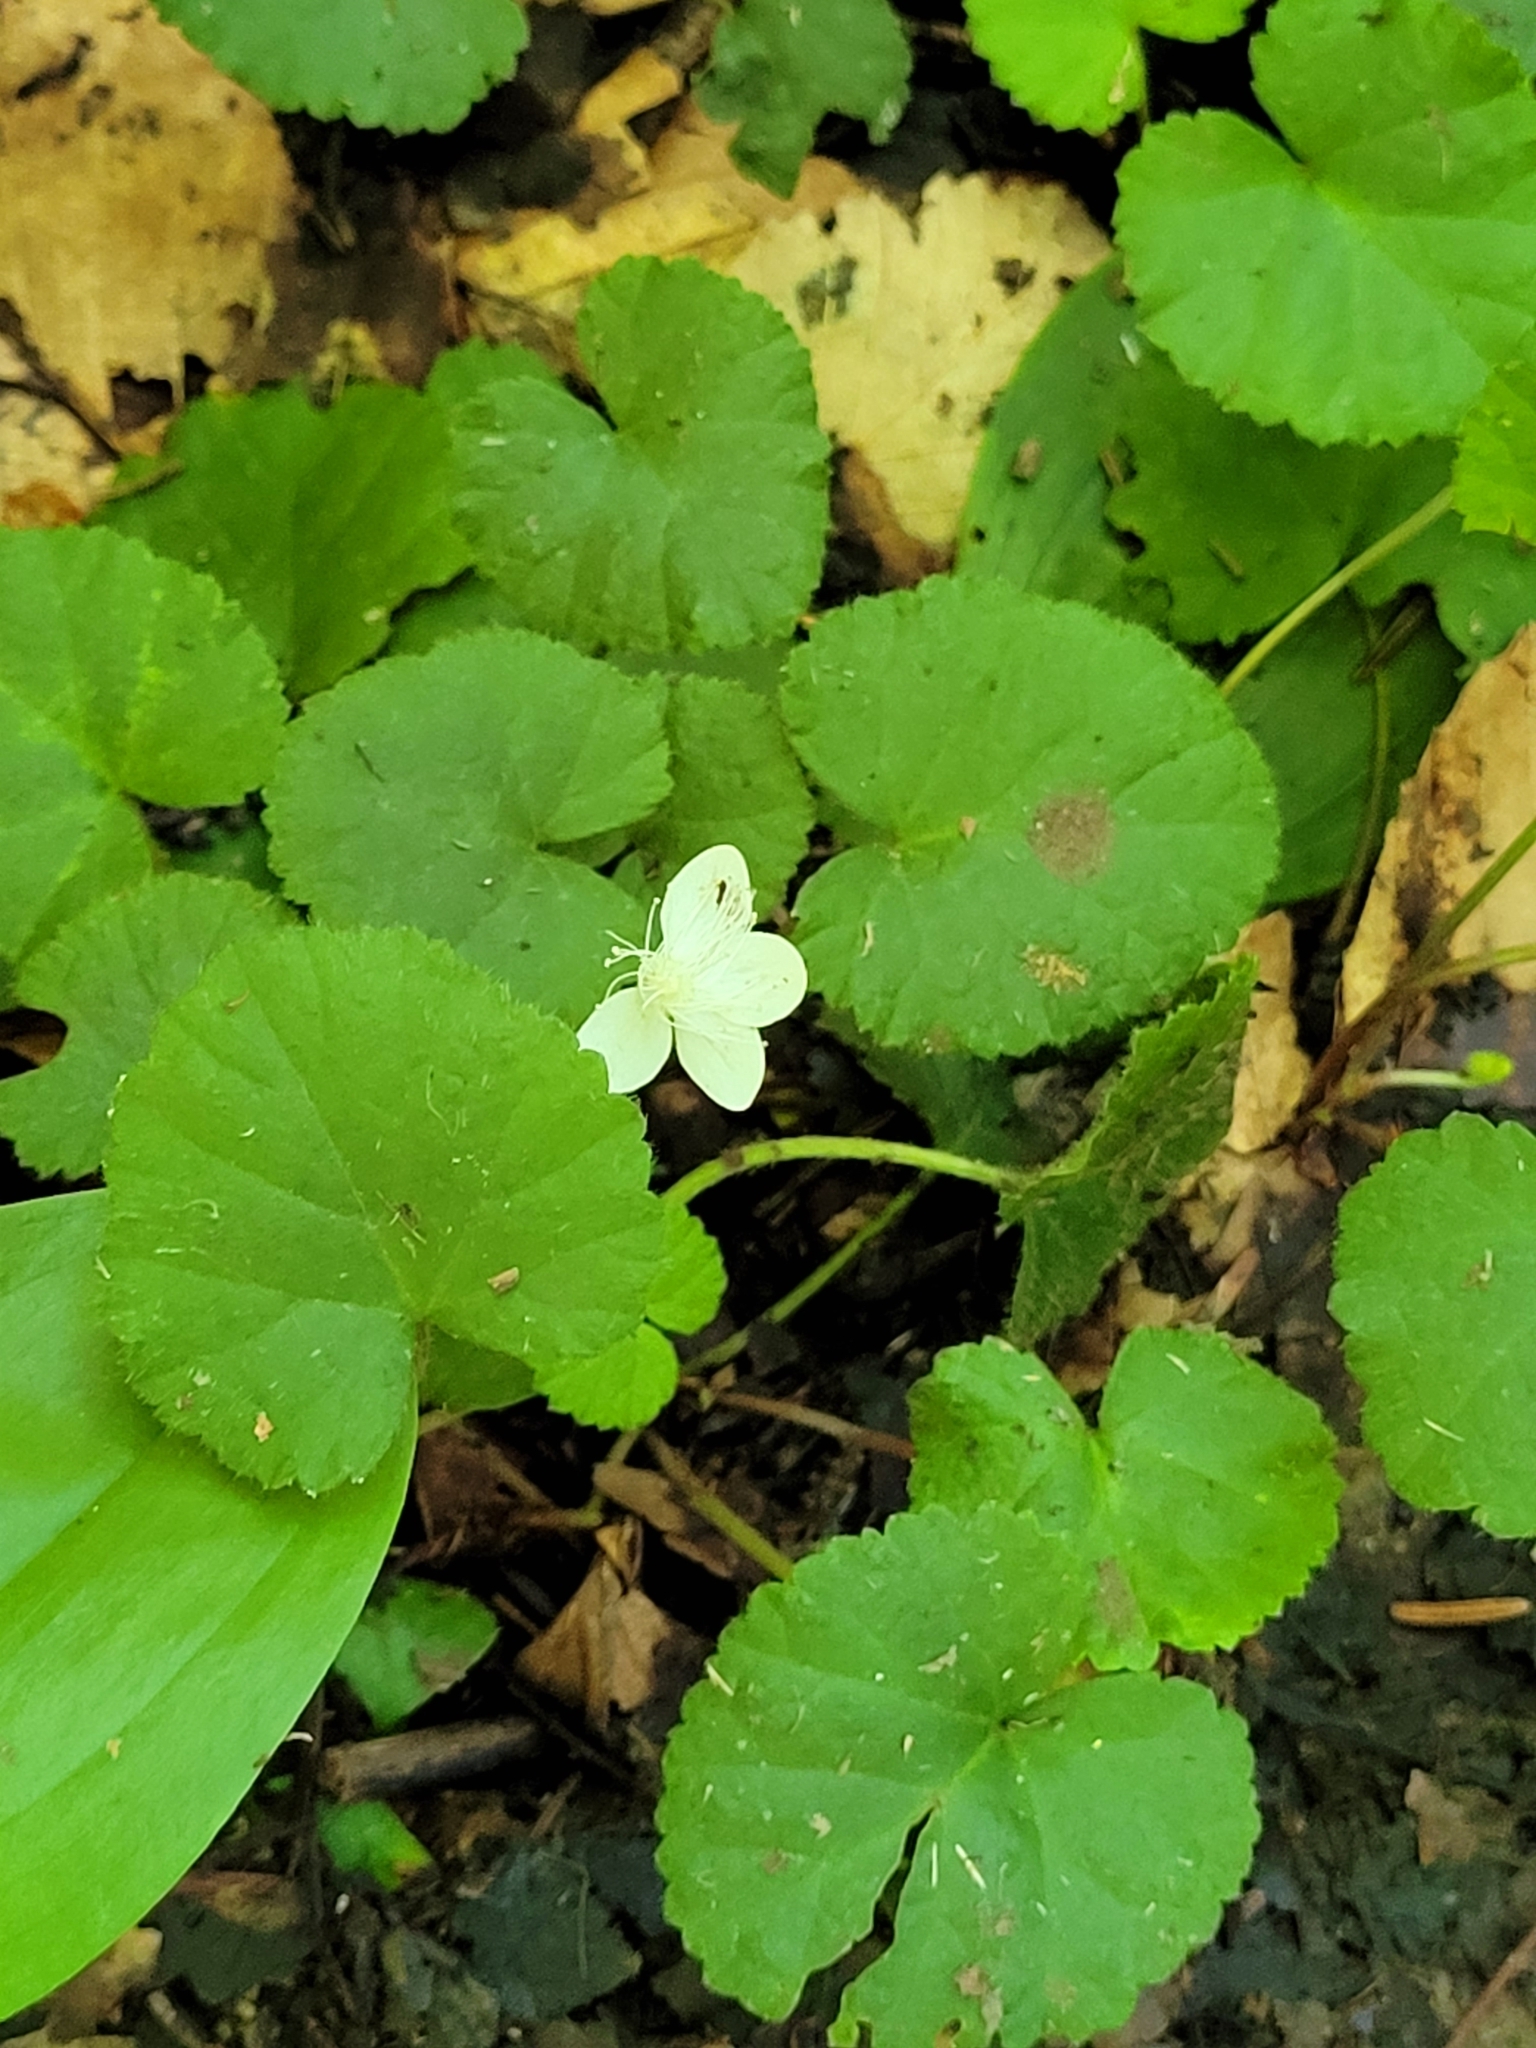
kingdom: Plantae
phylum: Tracheophyta
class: Magnoliopsida
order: Rosales
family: Rosaceae
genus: Dalibarda
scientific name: Dalibarda repens
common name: Dewdrop
